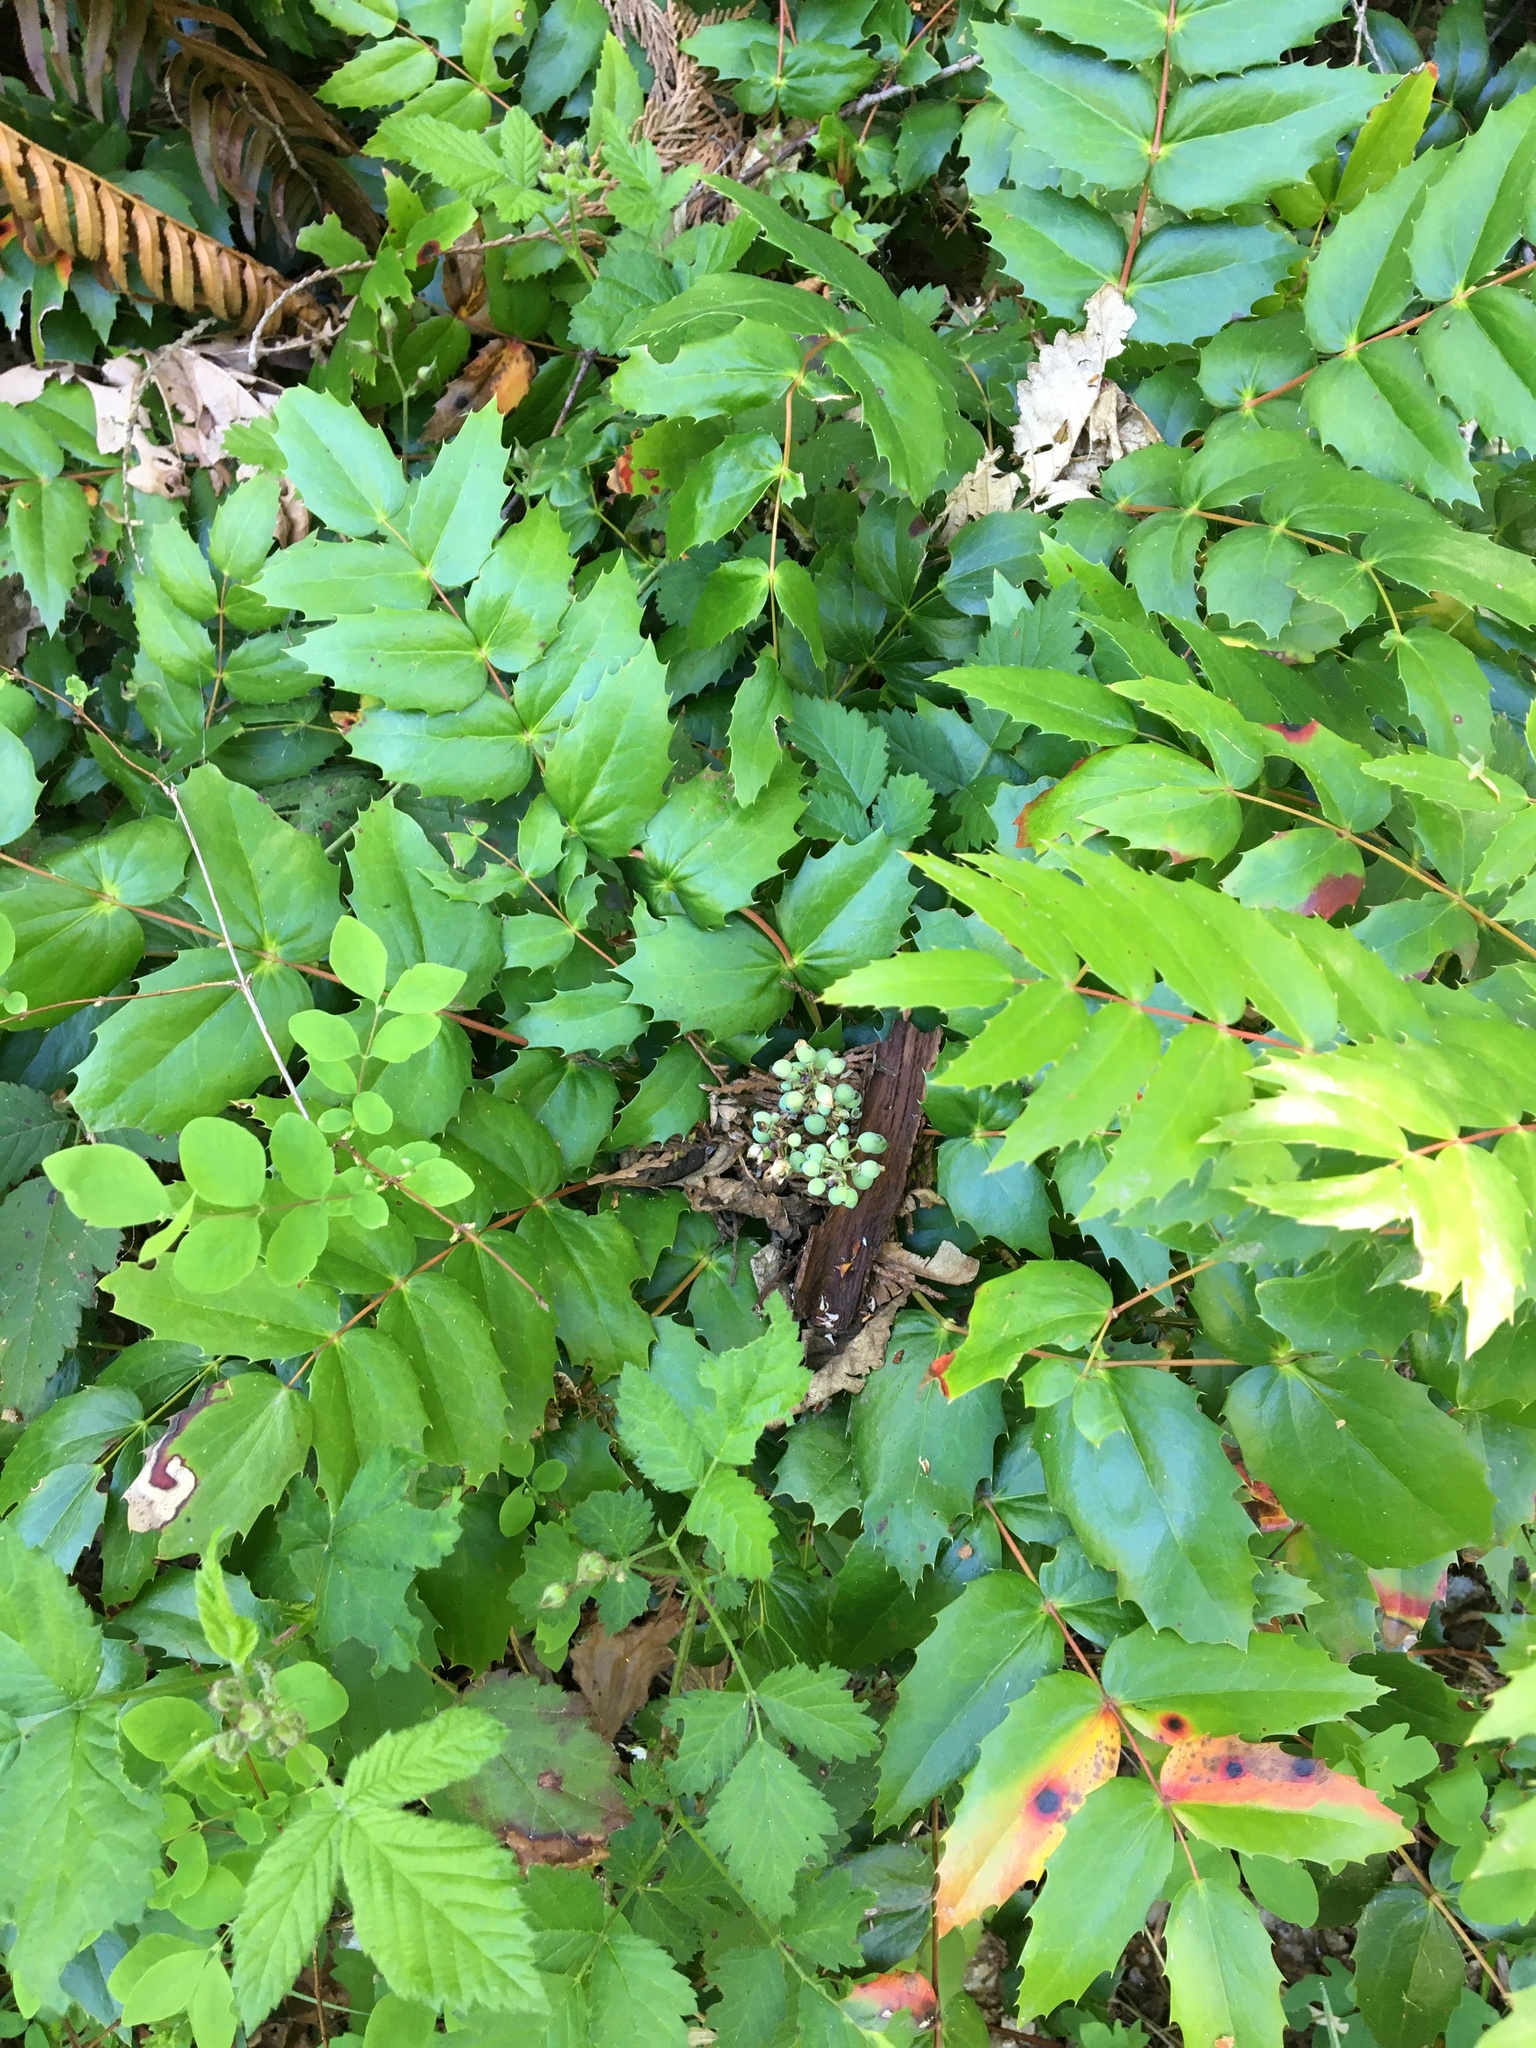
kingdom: Plantae
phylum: Tracheophyta
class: Magnoliopsida
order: Ranunculales
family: Berberidaceae
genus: Mahonia
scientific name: Mahonia nervosa
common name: Cascade oregon-grape
